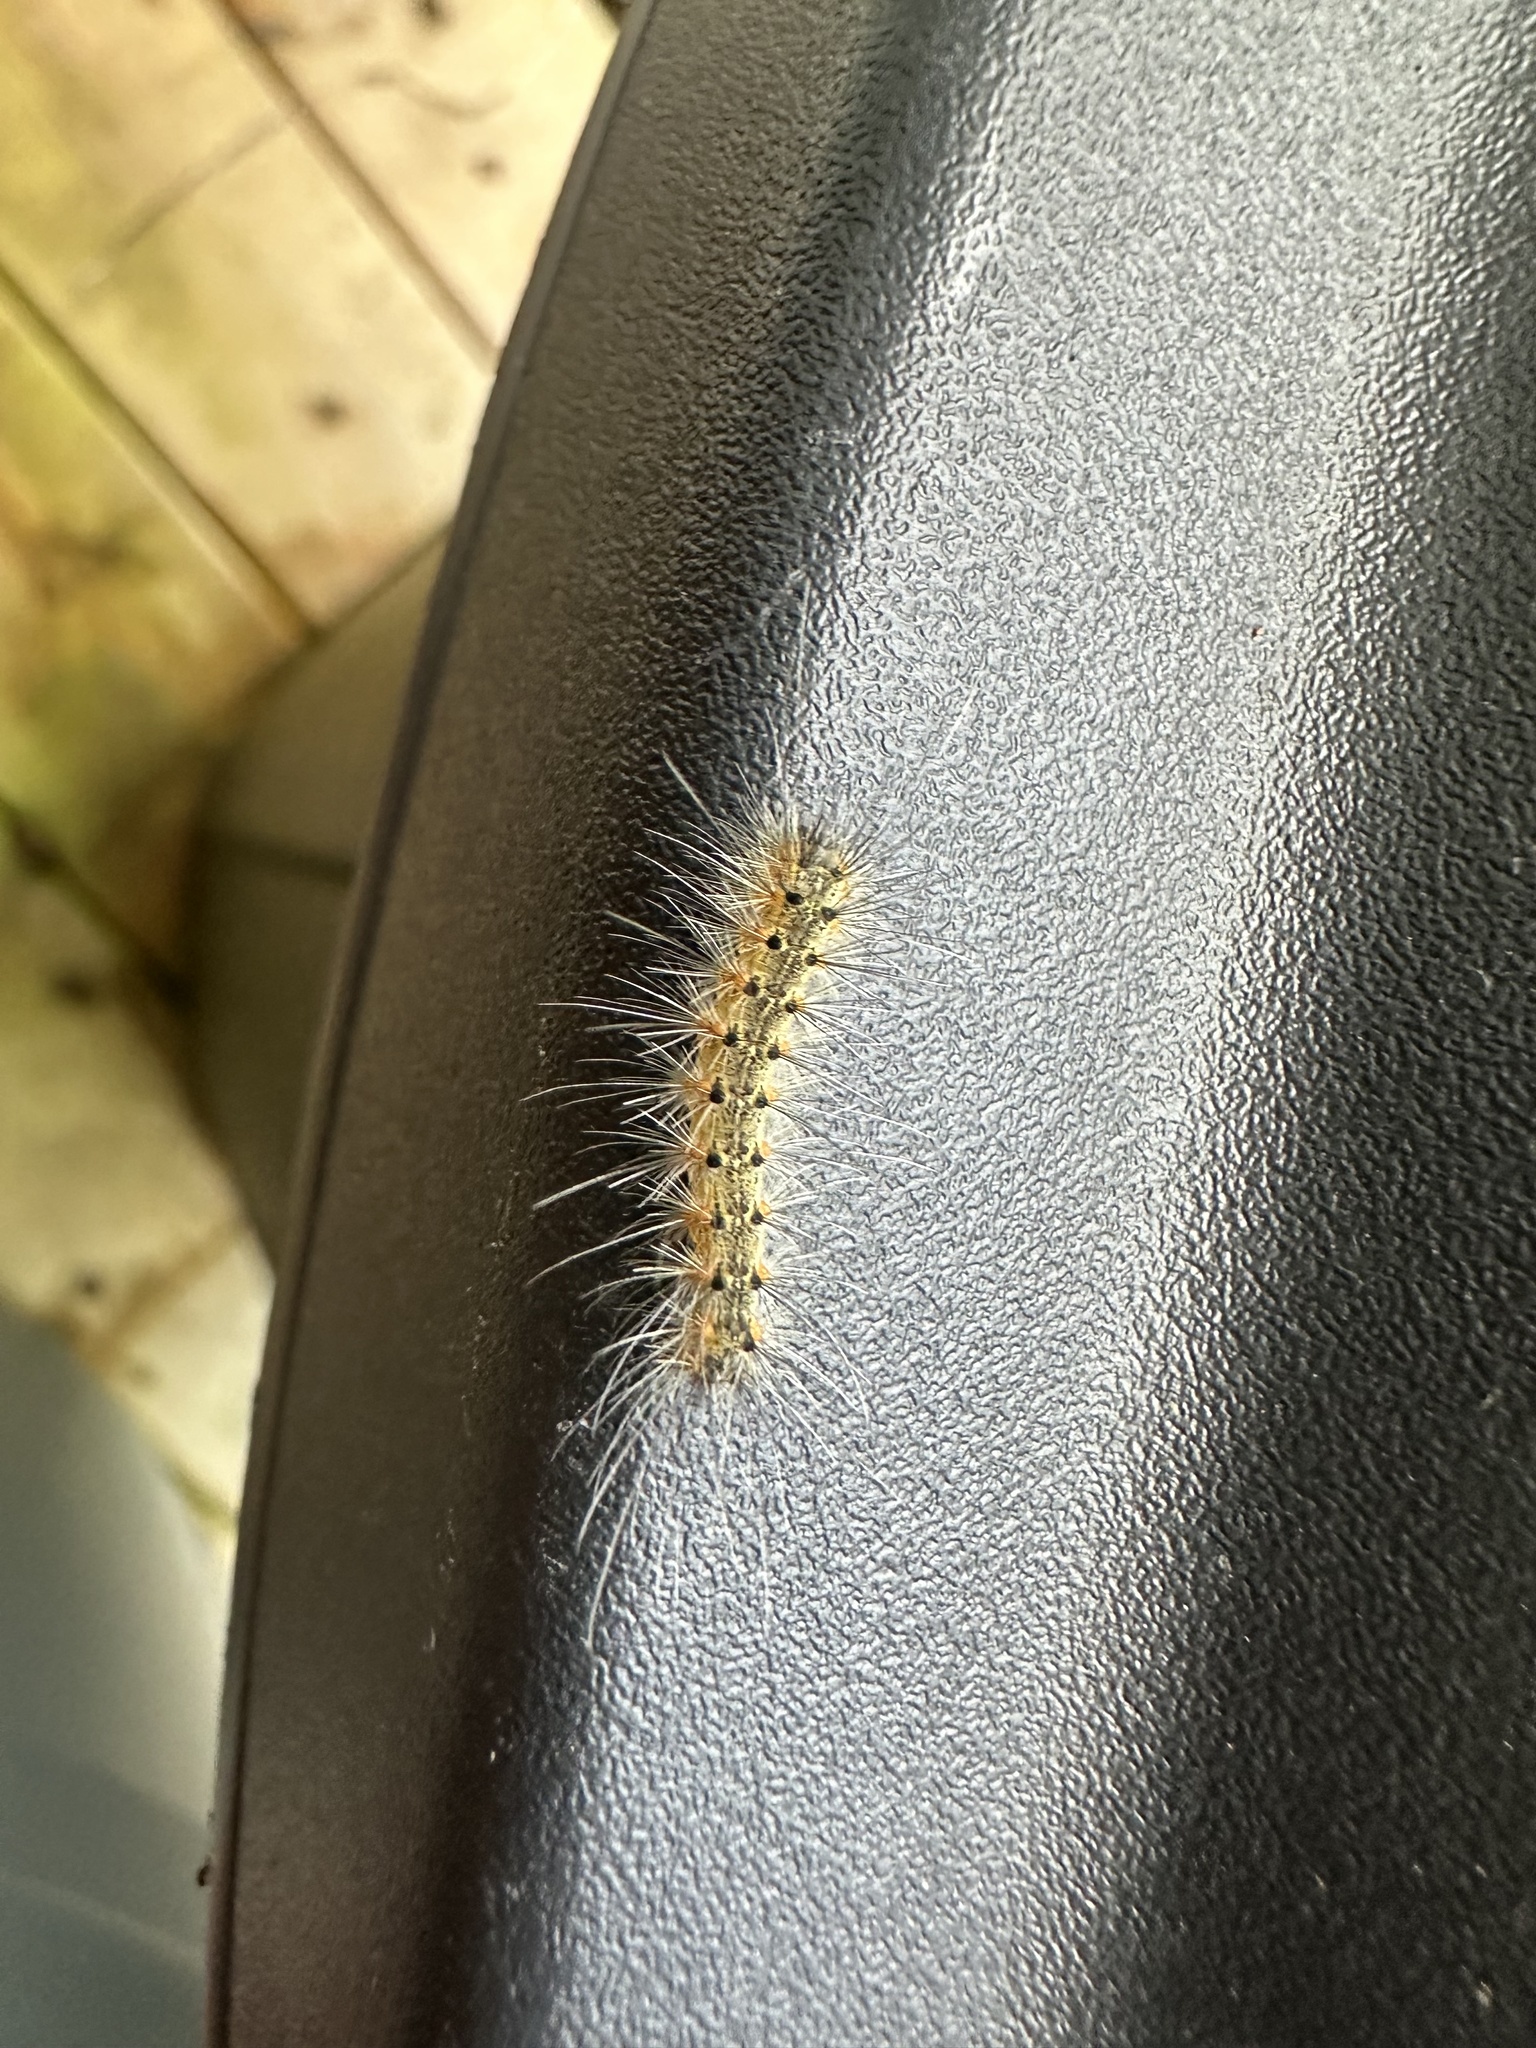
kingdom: Animalia
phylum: Arthropoda
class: Insecta
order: Lepidoptera
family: Erebidae
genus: Hyphantria
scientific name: Hyphantria cunea
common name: American white moth
